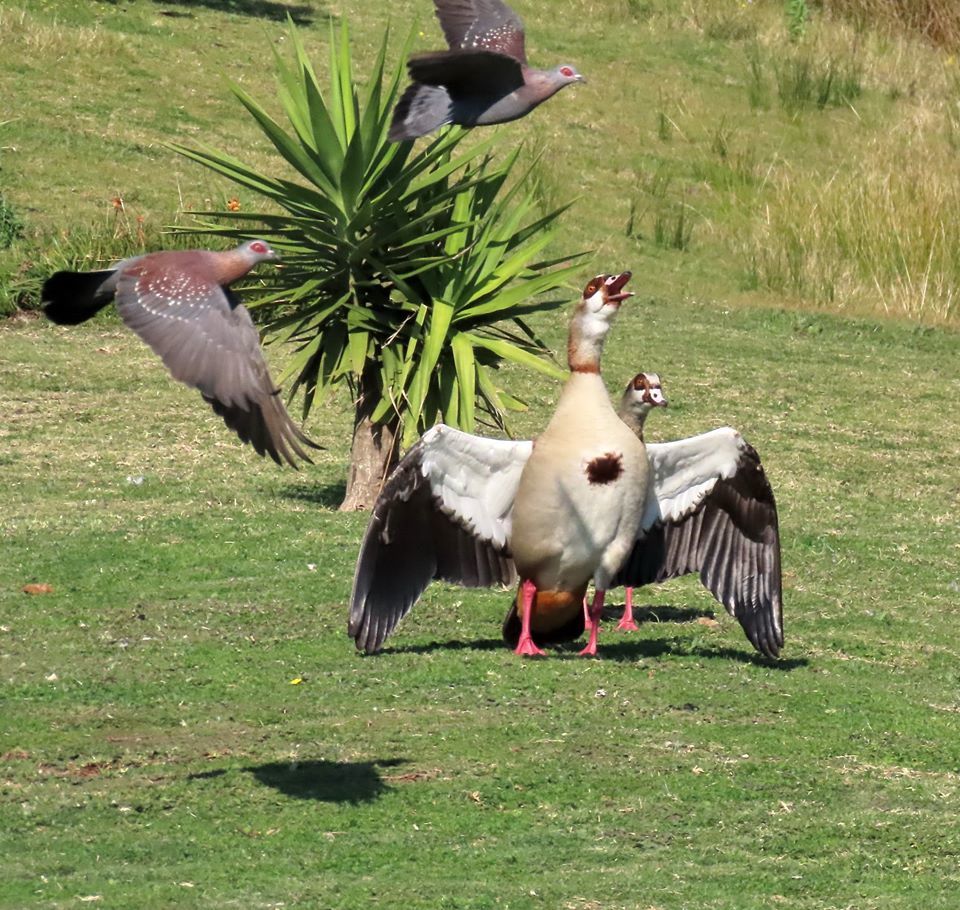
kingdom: Animalia
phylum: Chordata
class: Aves
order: Anseriformes
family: Anatidae
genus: Alopochen
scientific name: Alopochen aegyptiaca
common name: Egyptian goose
